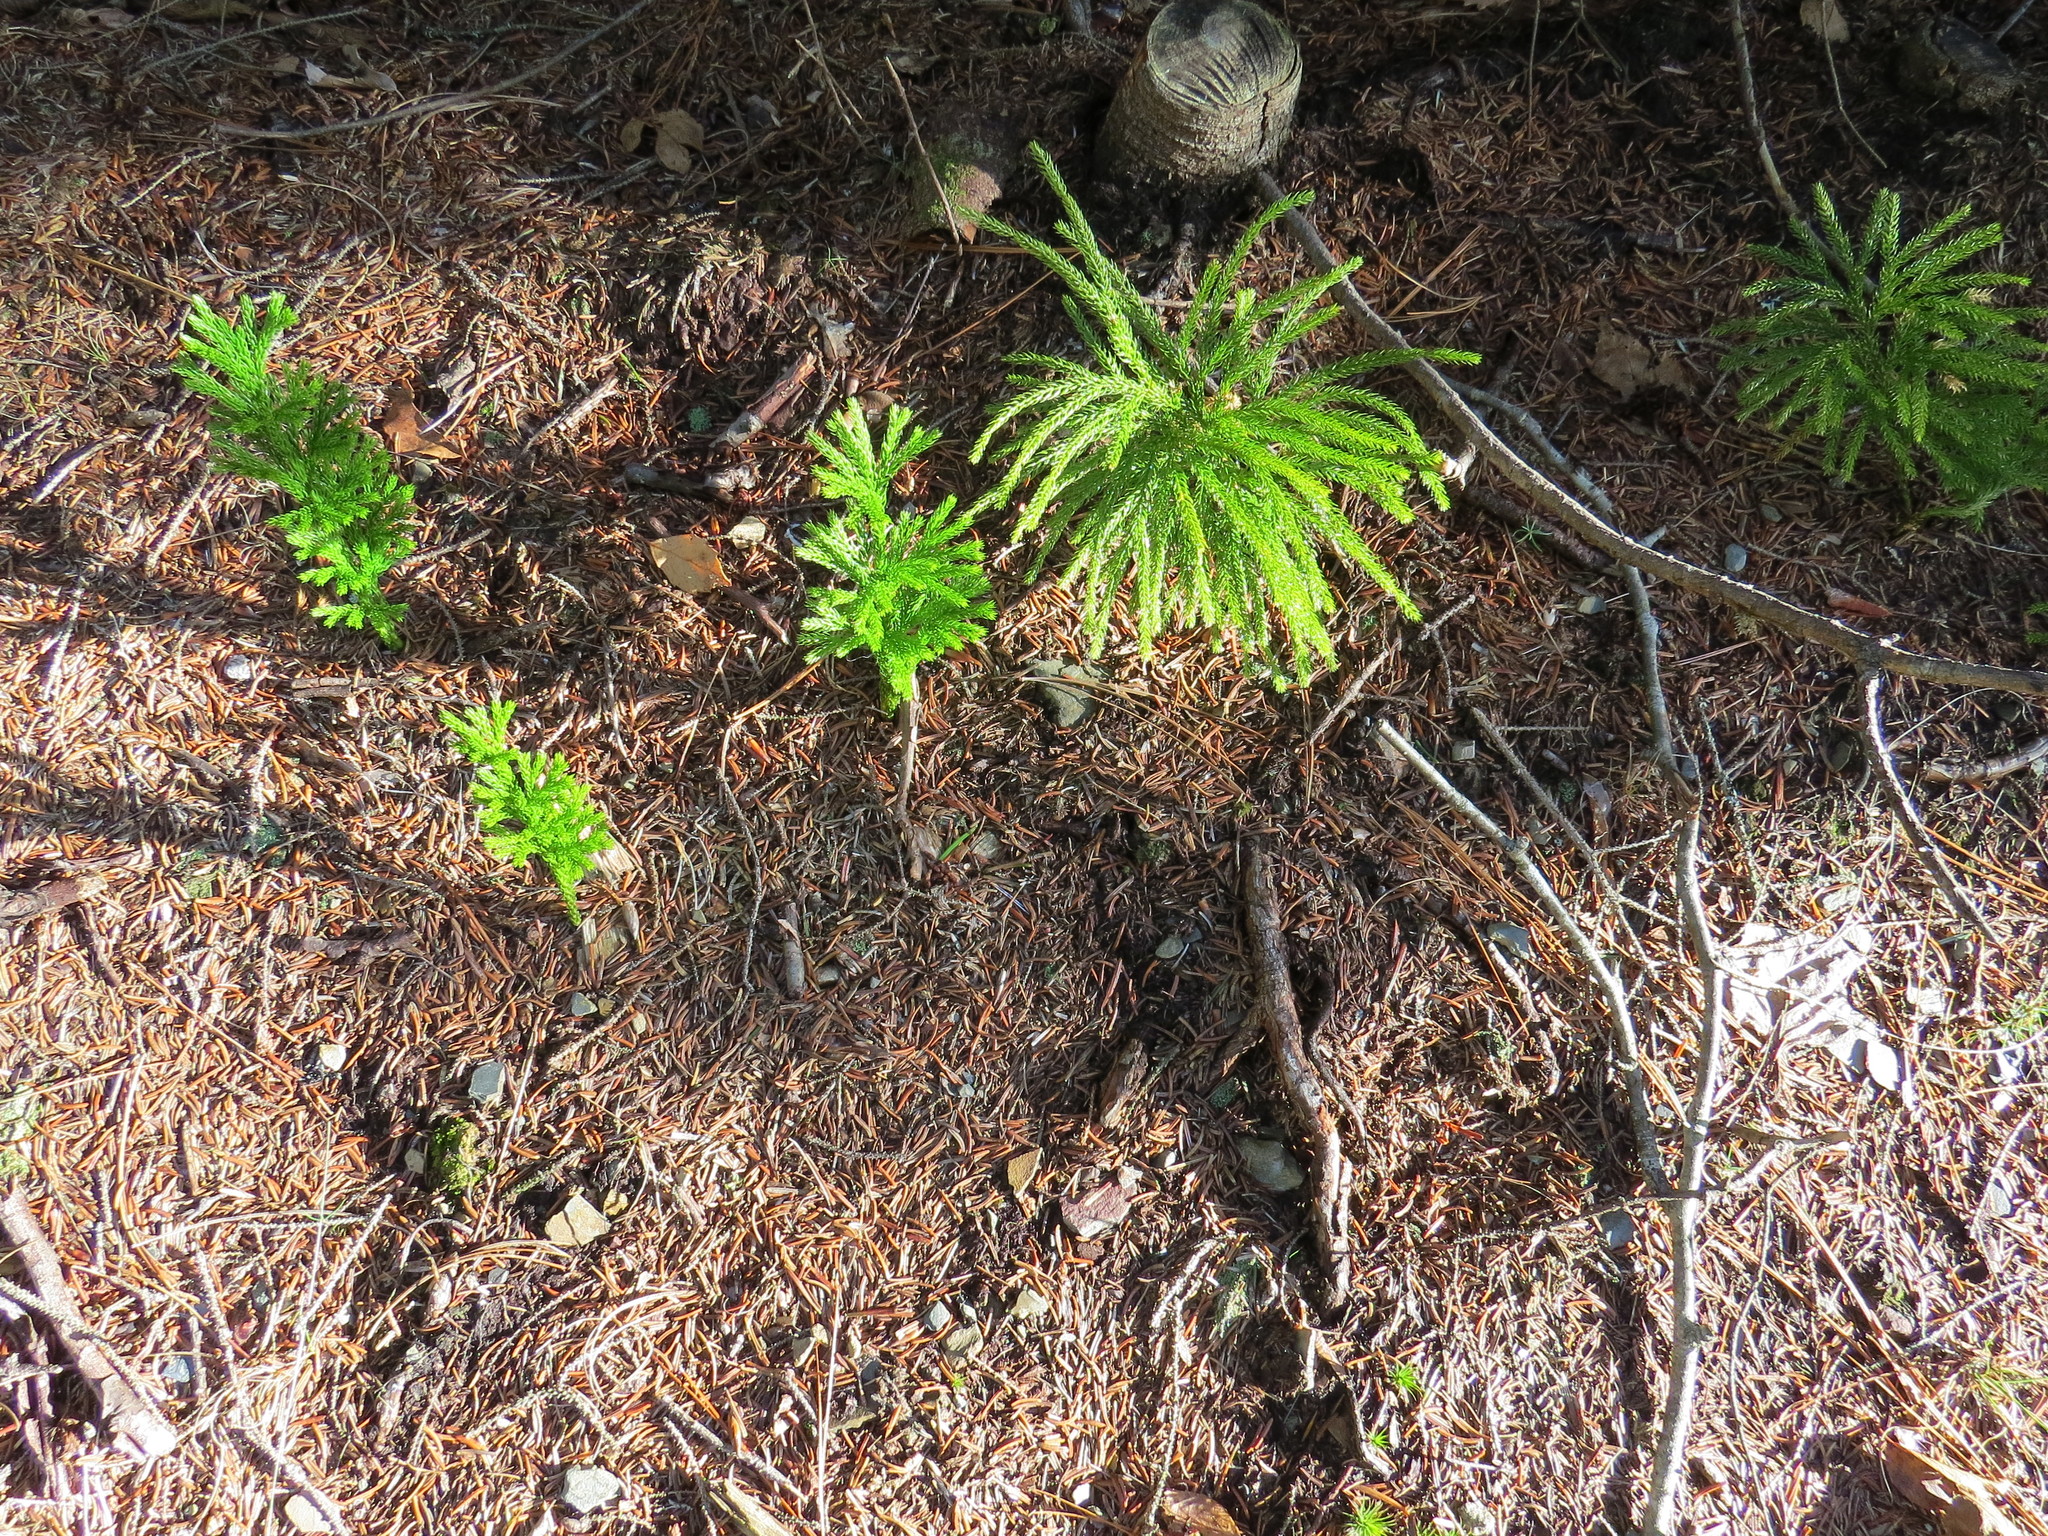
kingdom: Plantae
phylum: Tracheophyta
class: Lycopodiopsida
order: Lycopodiales
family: Lycopodiaceae
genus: Dendrolycopodium
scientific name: Dendrolycopodium dendroideum
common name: Northern tree-clubmoss
